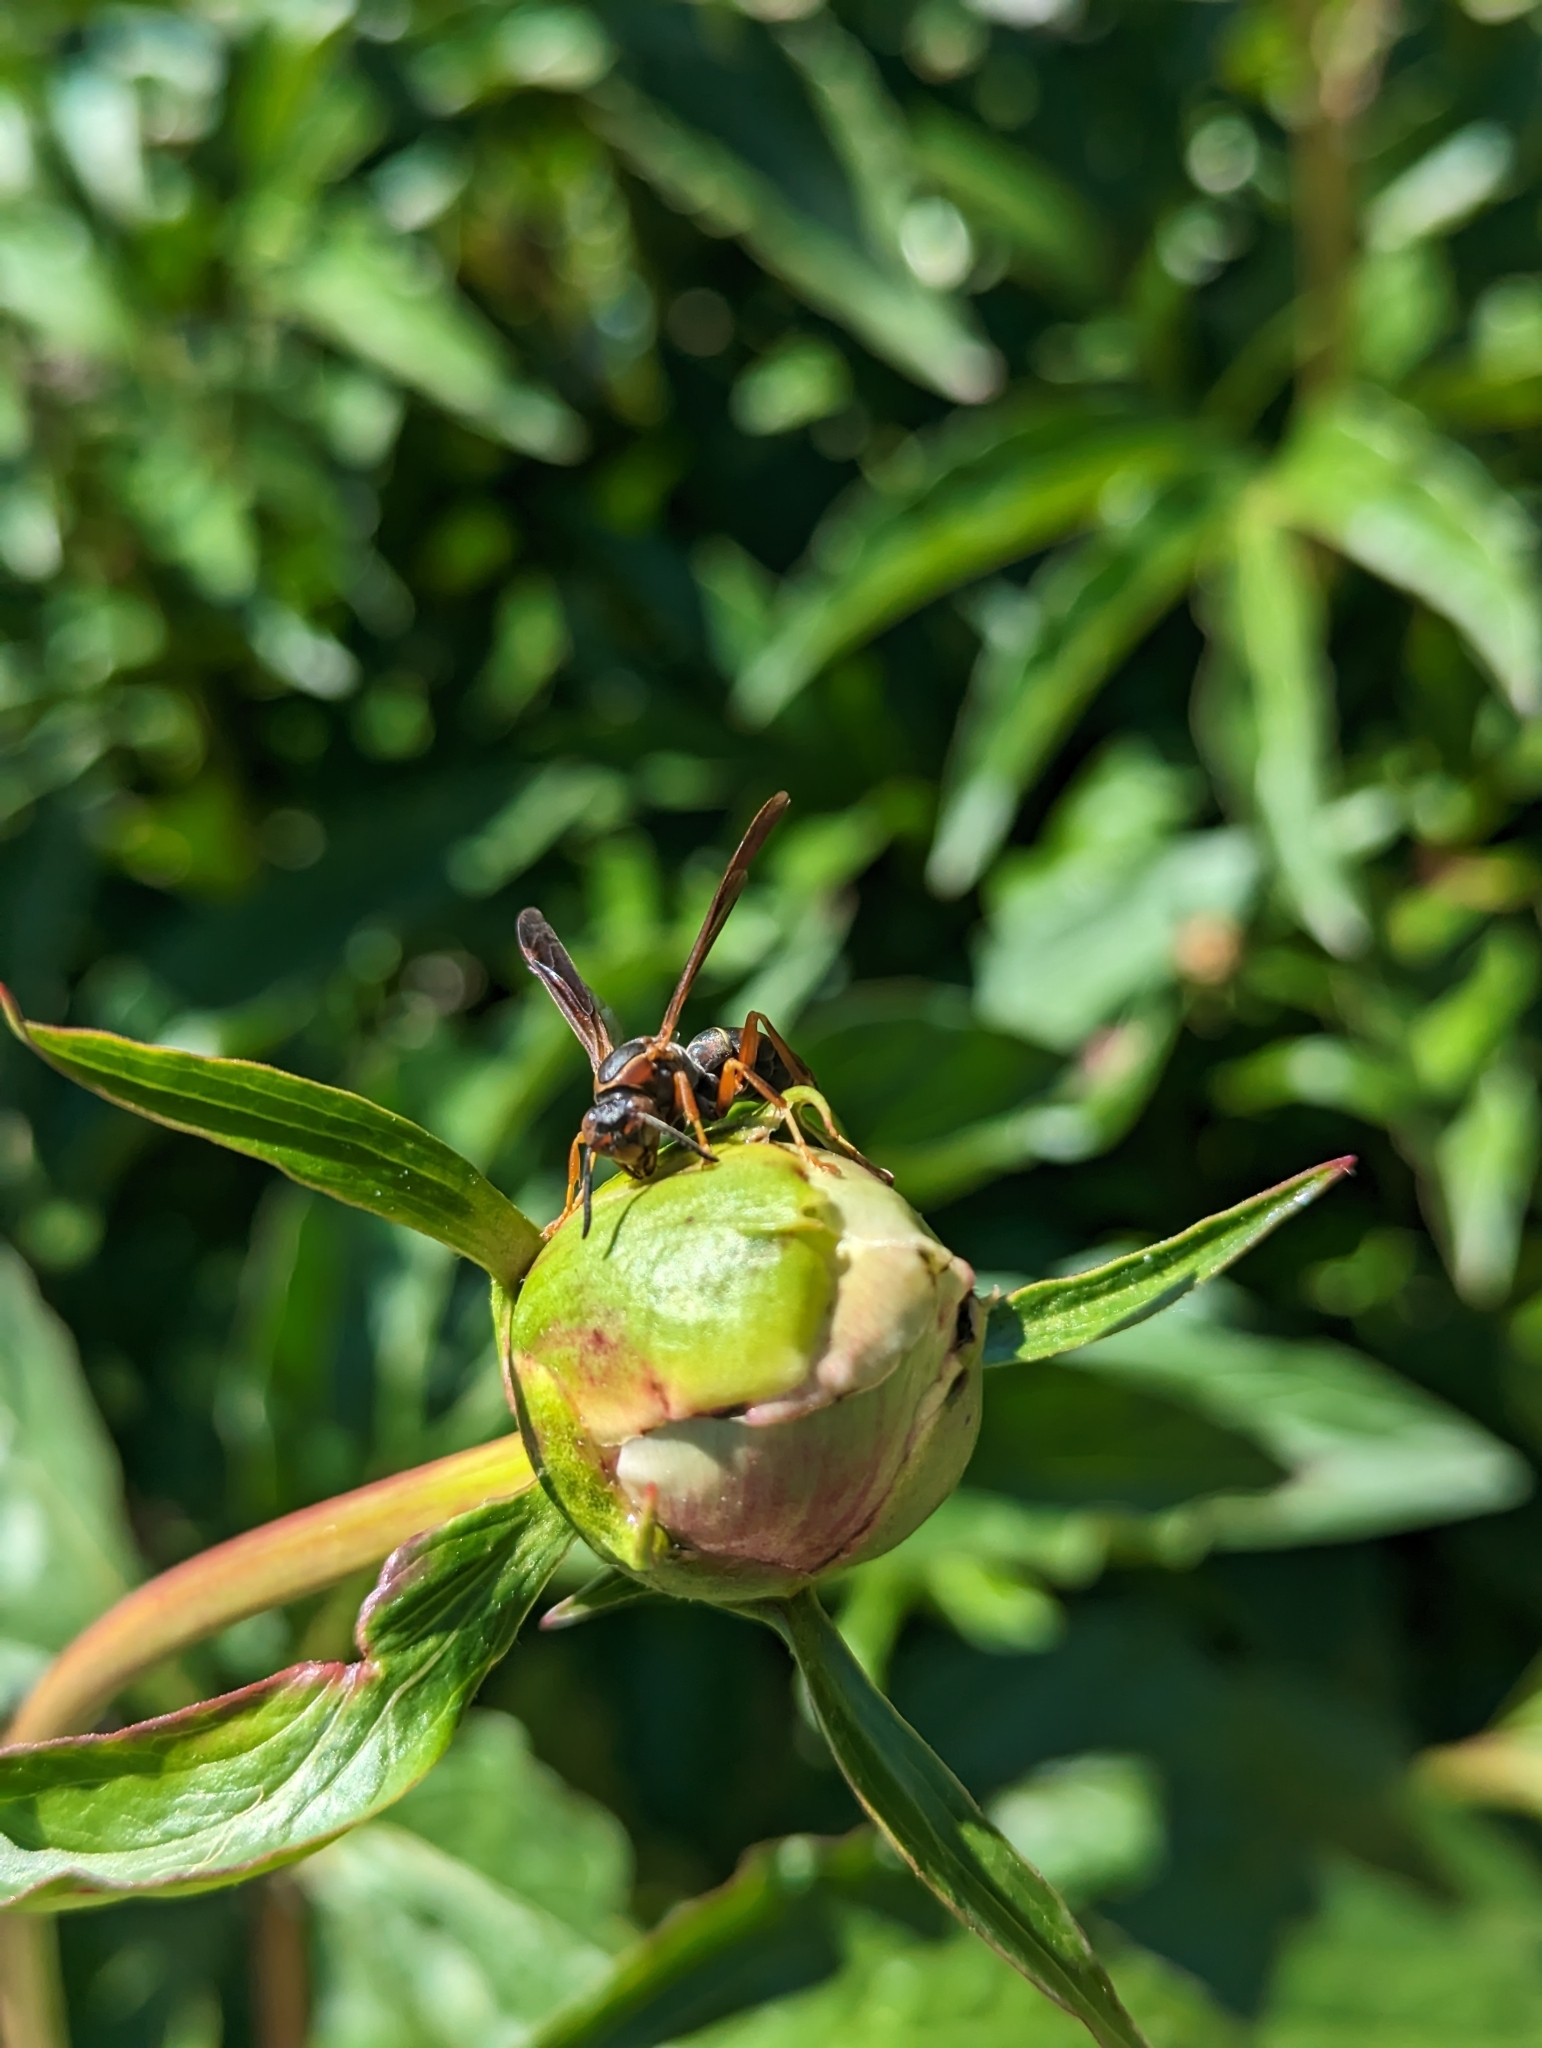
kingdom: Animalia
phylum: Arthropoda
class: Insecta
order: Hymenoptera
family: Eumenidae
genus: Polistes
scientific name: Polistes fuscatus
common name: Dark paper wasp
